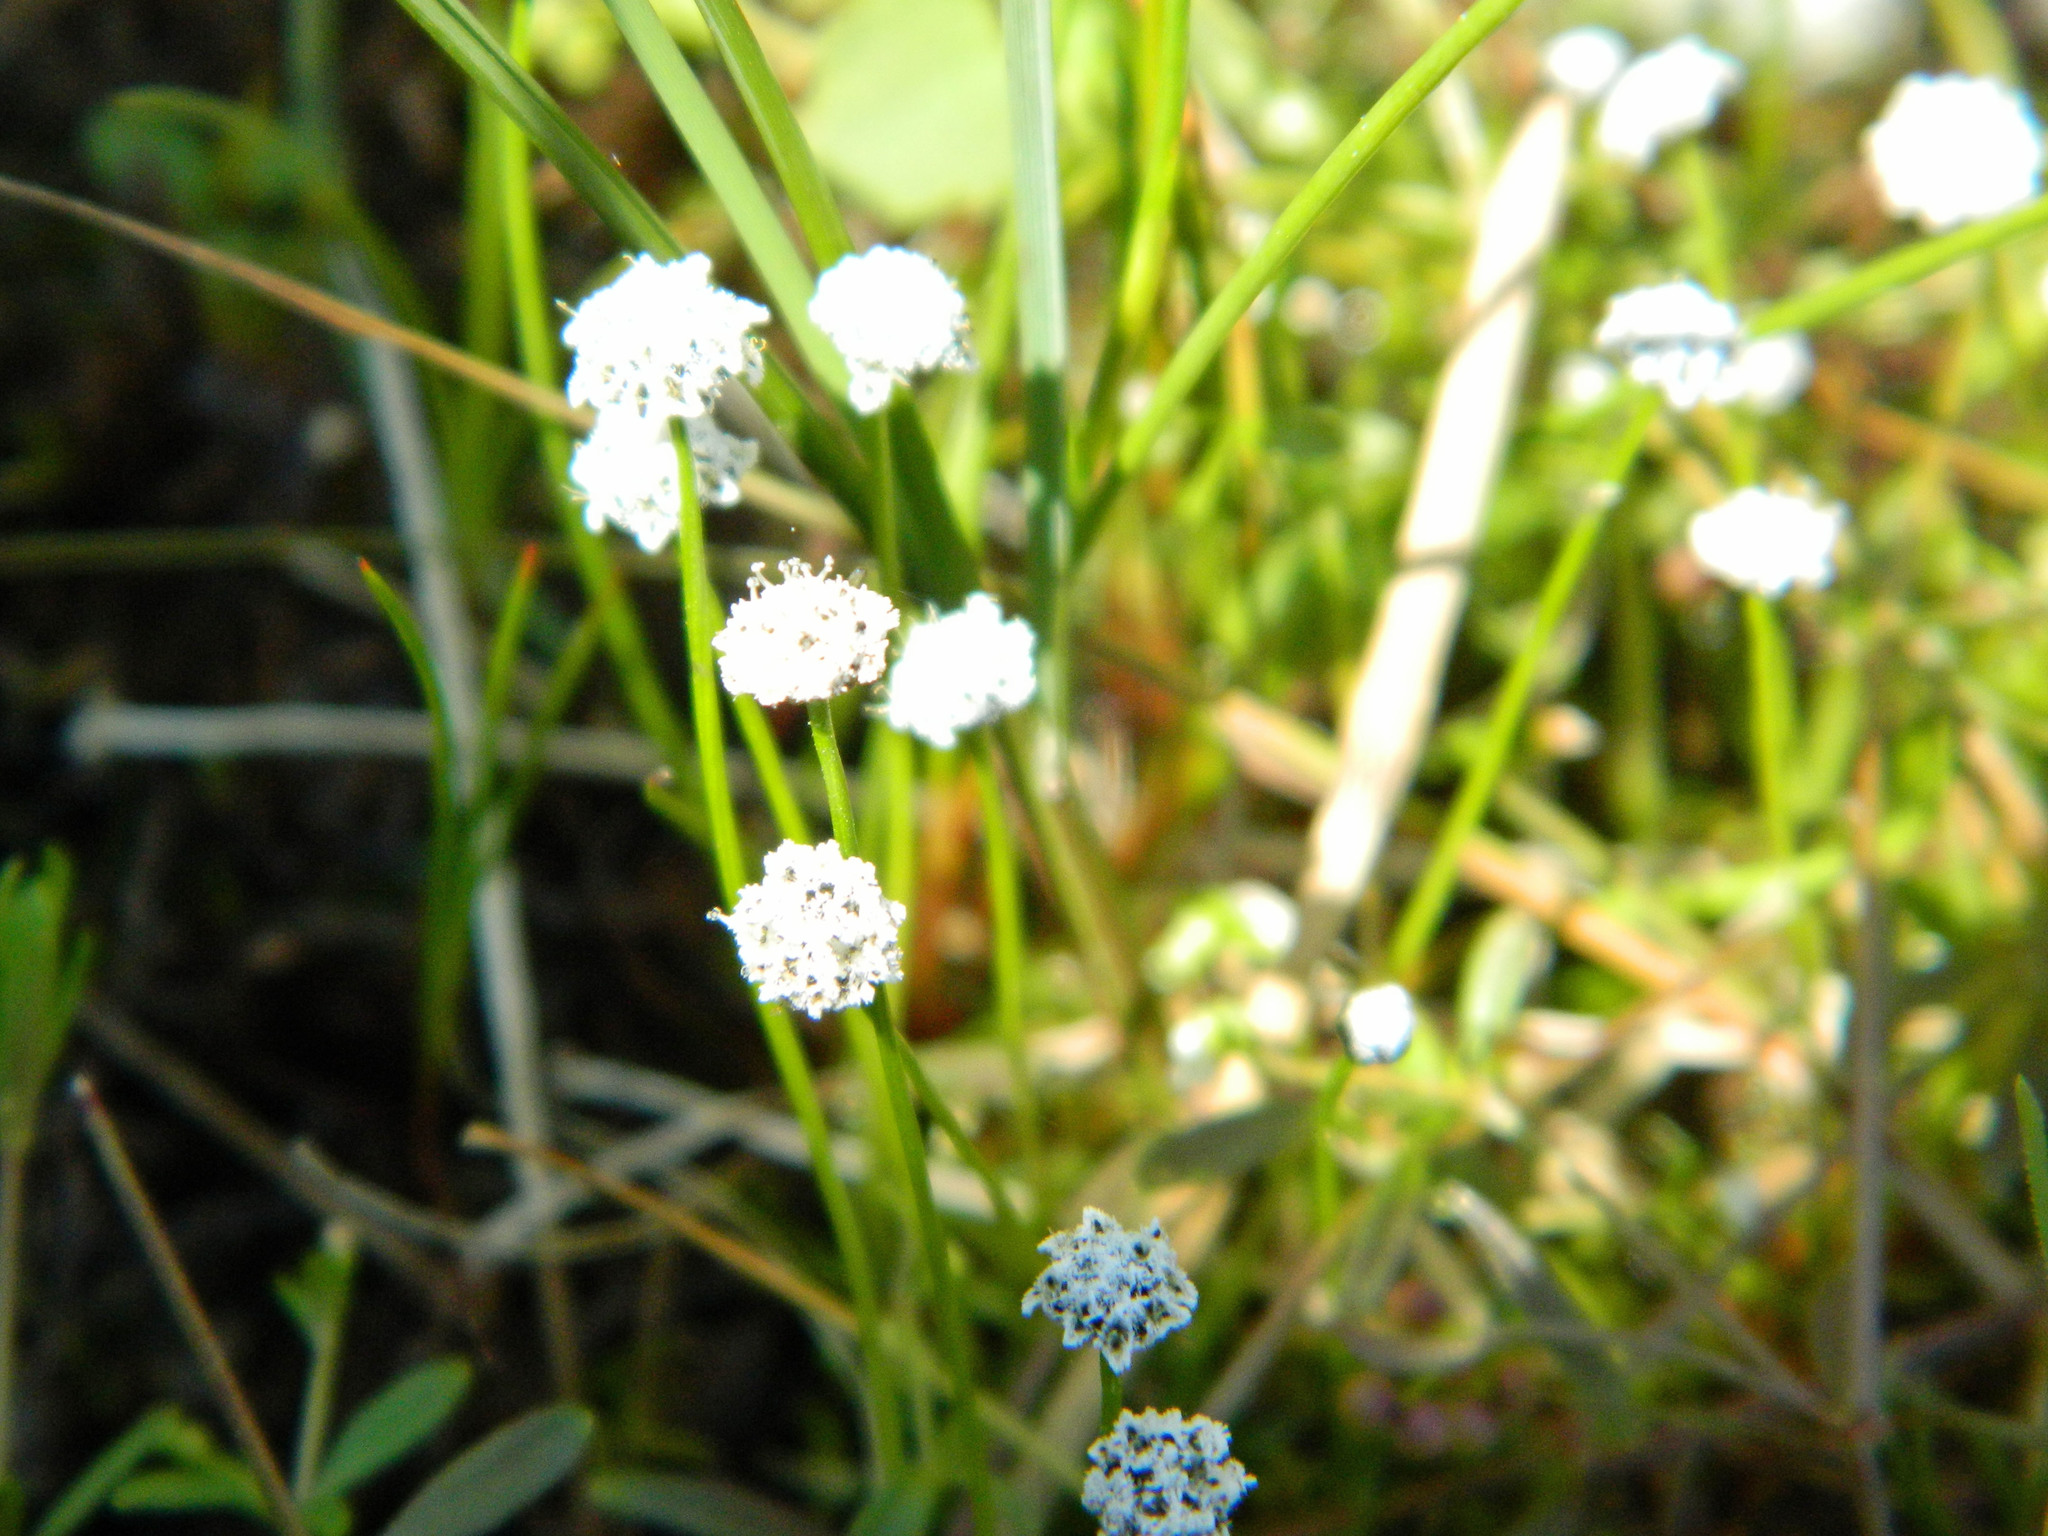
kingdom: Plantae
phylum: Tracheophyta
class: Liliopsida
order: Poales
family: Eriocaulaceae
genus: Eriocaulon
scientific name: Eriocaulon aquaticum
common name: Pipewort
